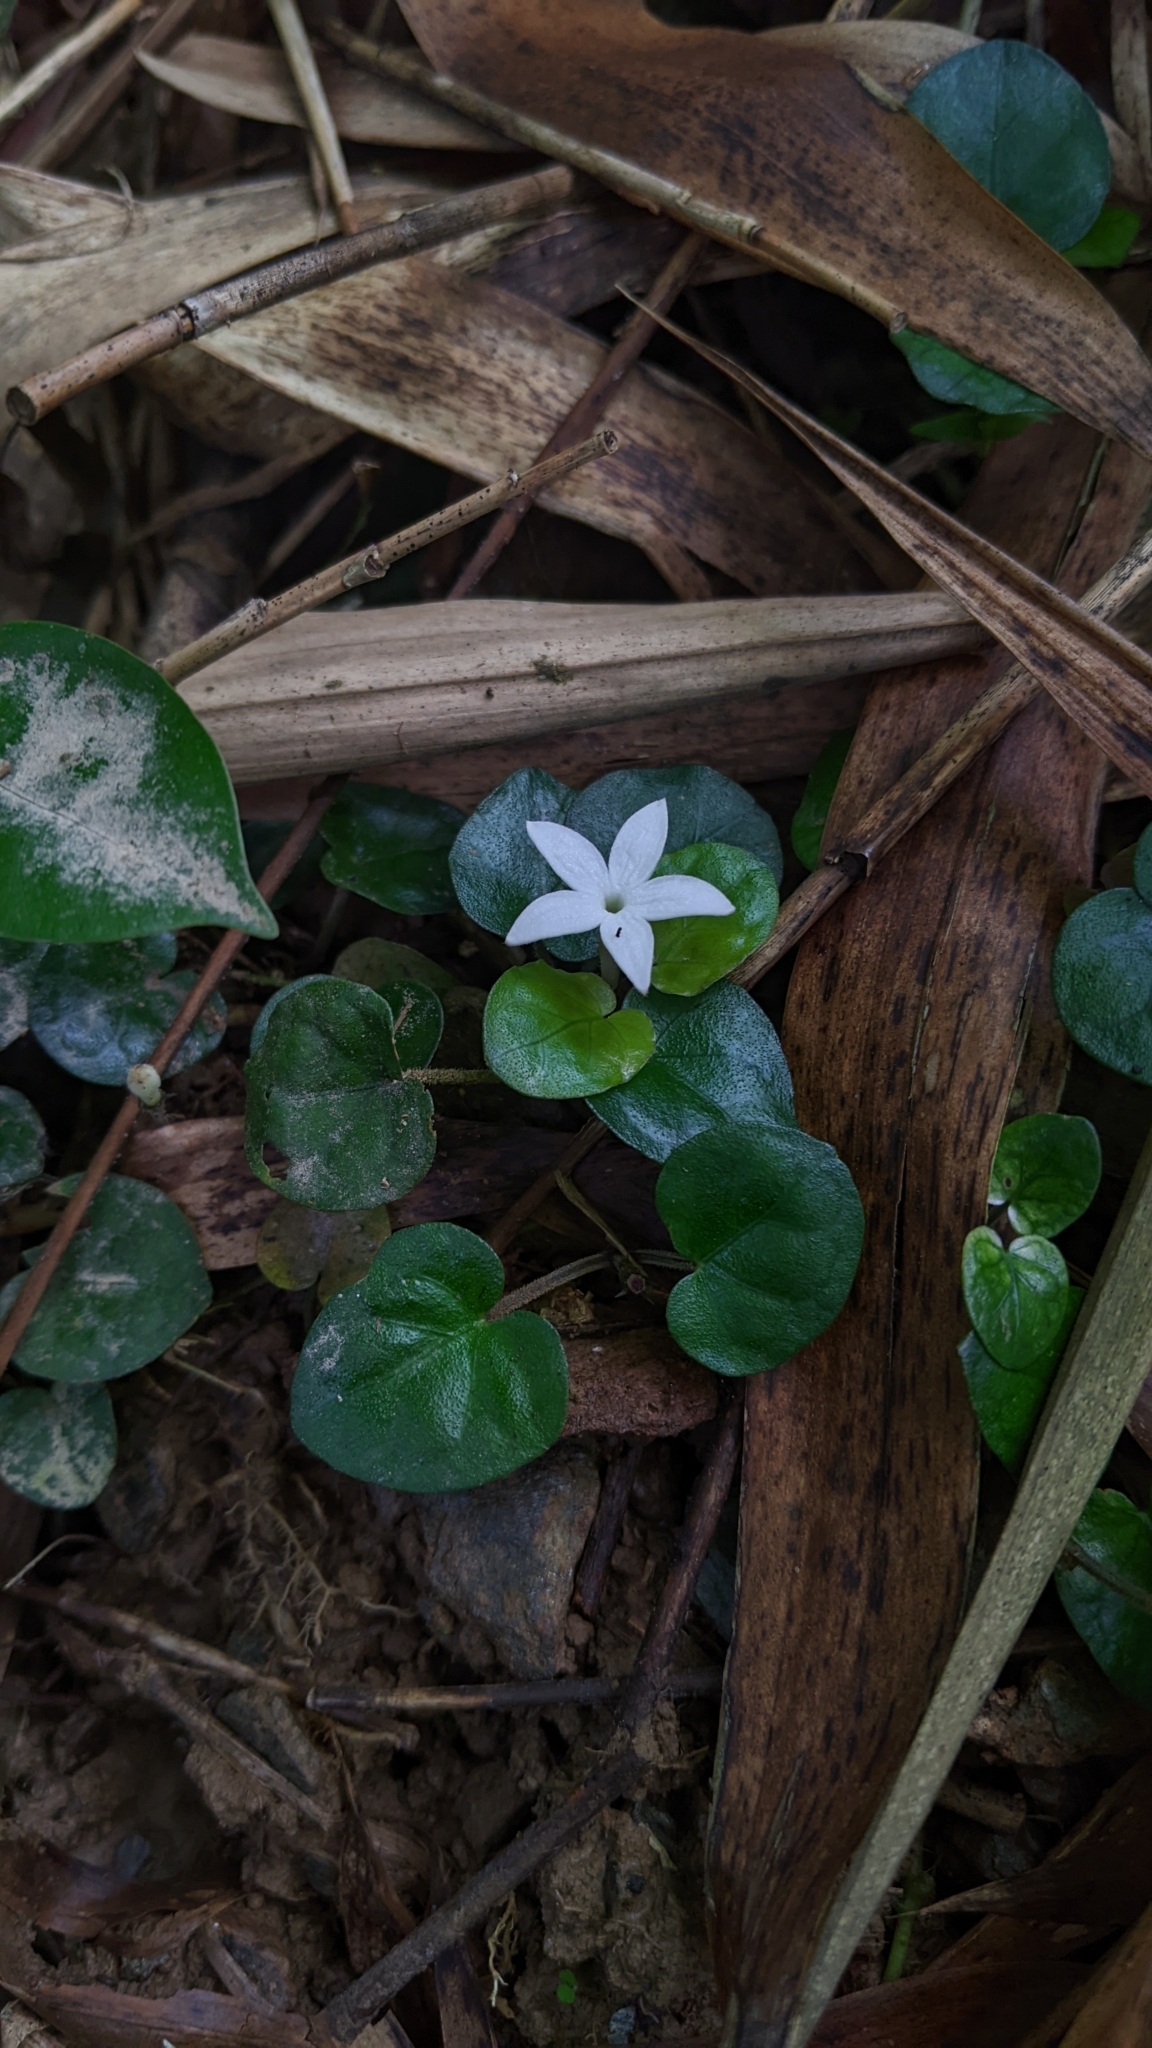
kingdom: Plantae
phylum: Tracheophyta
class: Magnoliopsida
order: Gentianales
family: Rubiaceae
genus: Geophila
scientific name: Geophila herbacea
